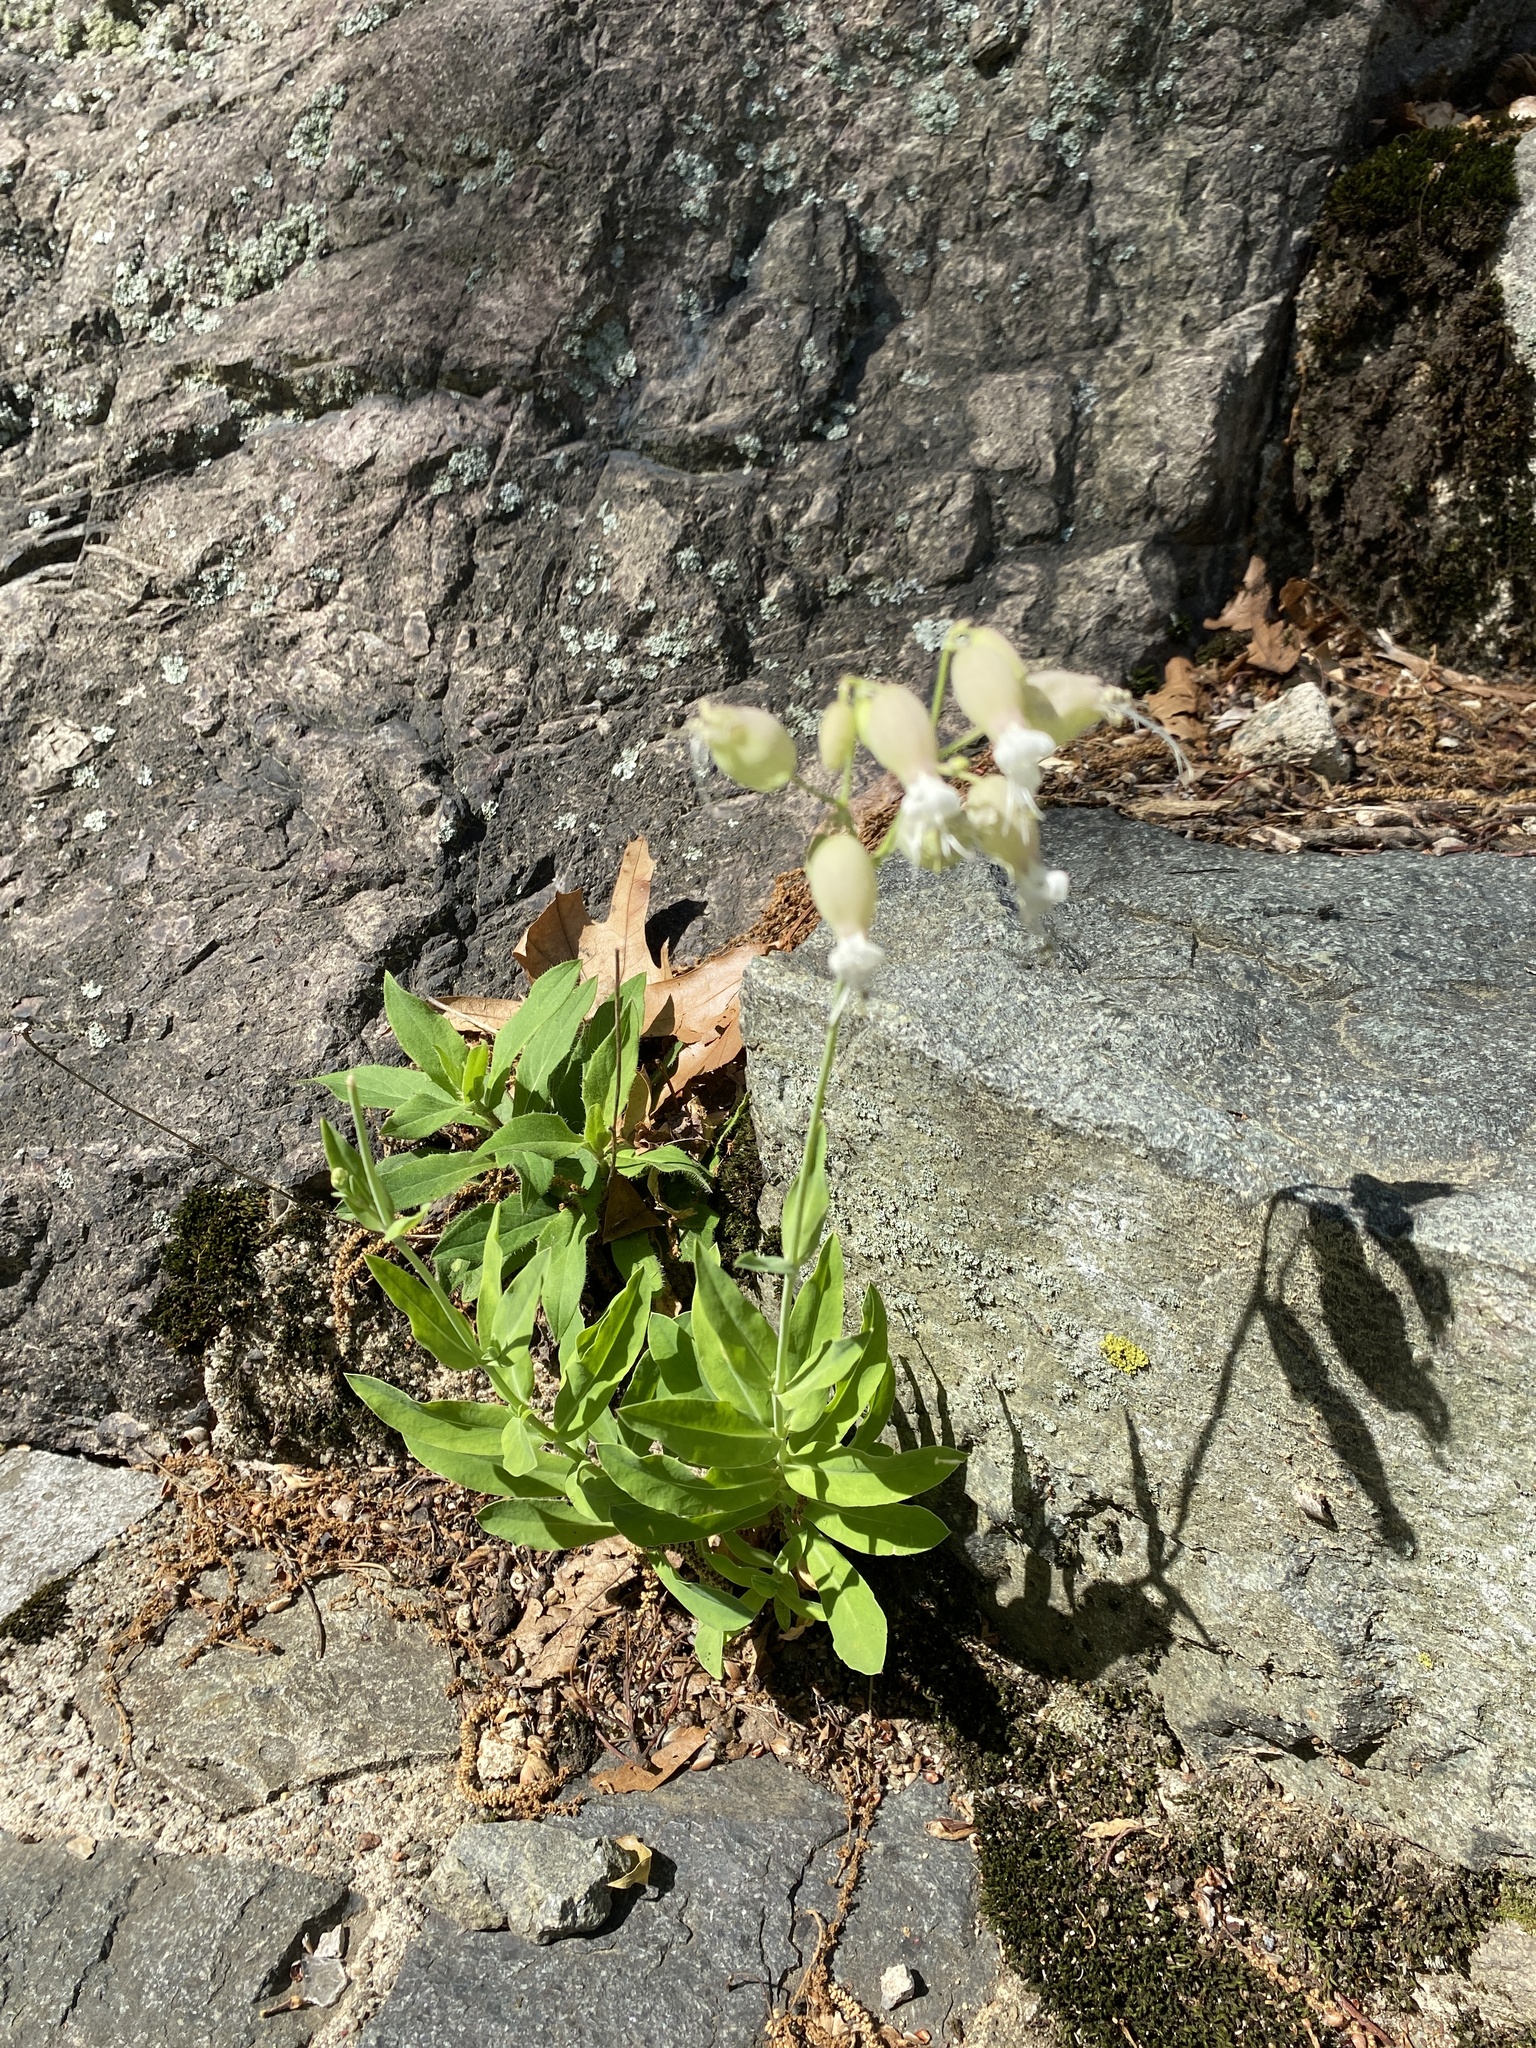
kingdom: Plantae
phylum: Tracheophyta
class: Magnoliopsida
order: Caryophyllales
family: Caryophyllaceae
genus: Silene
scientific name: Silene vulgaris
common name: Bladder campion
